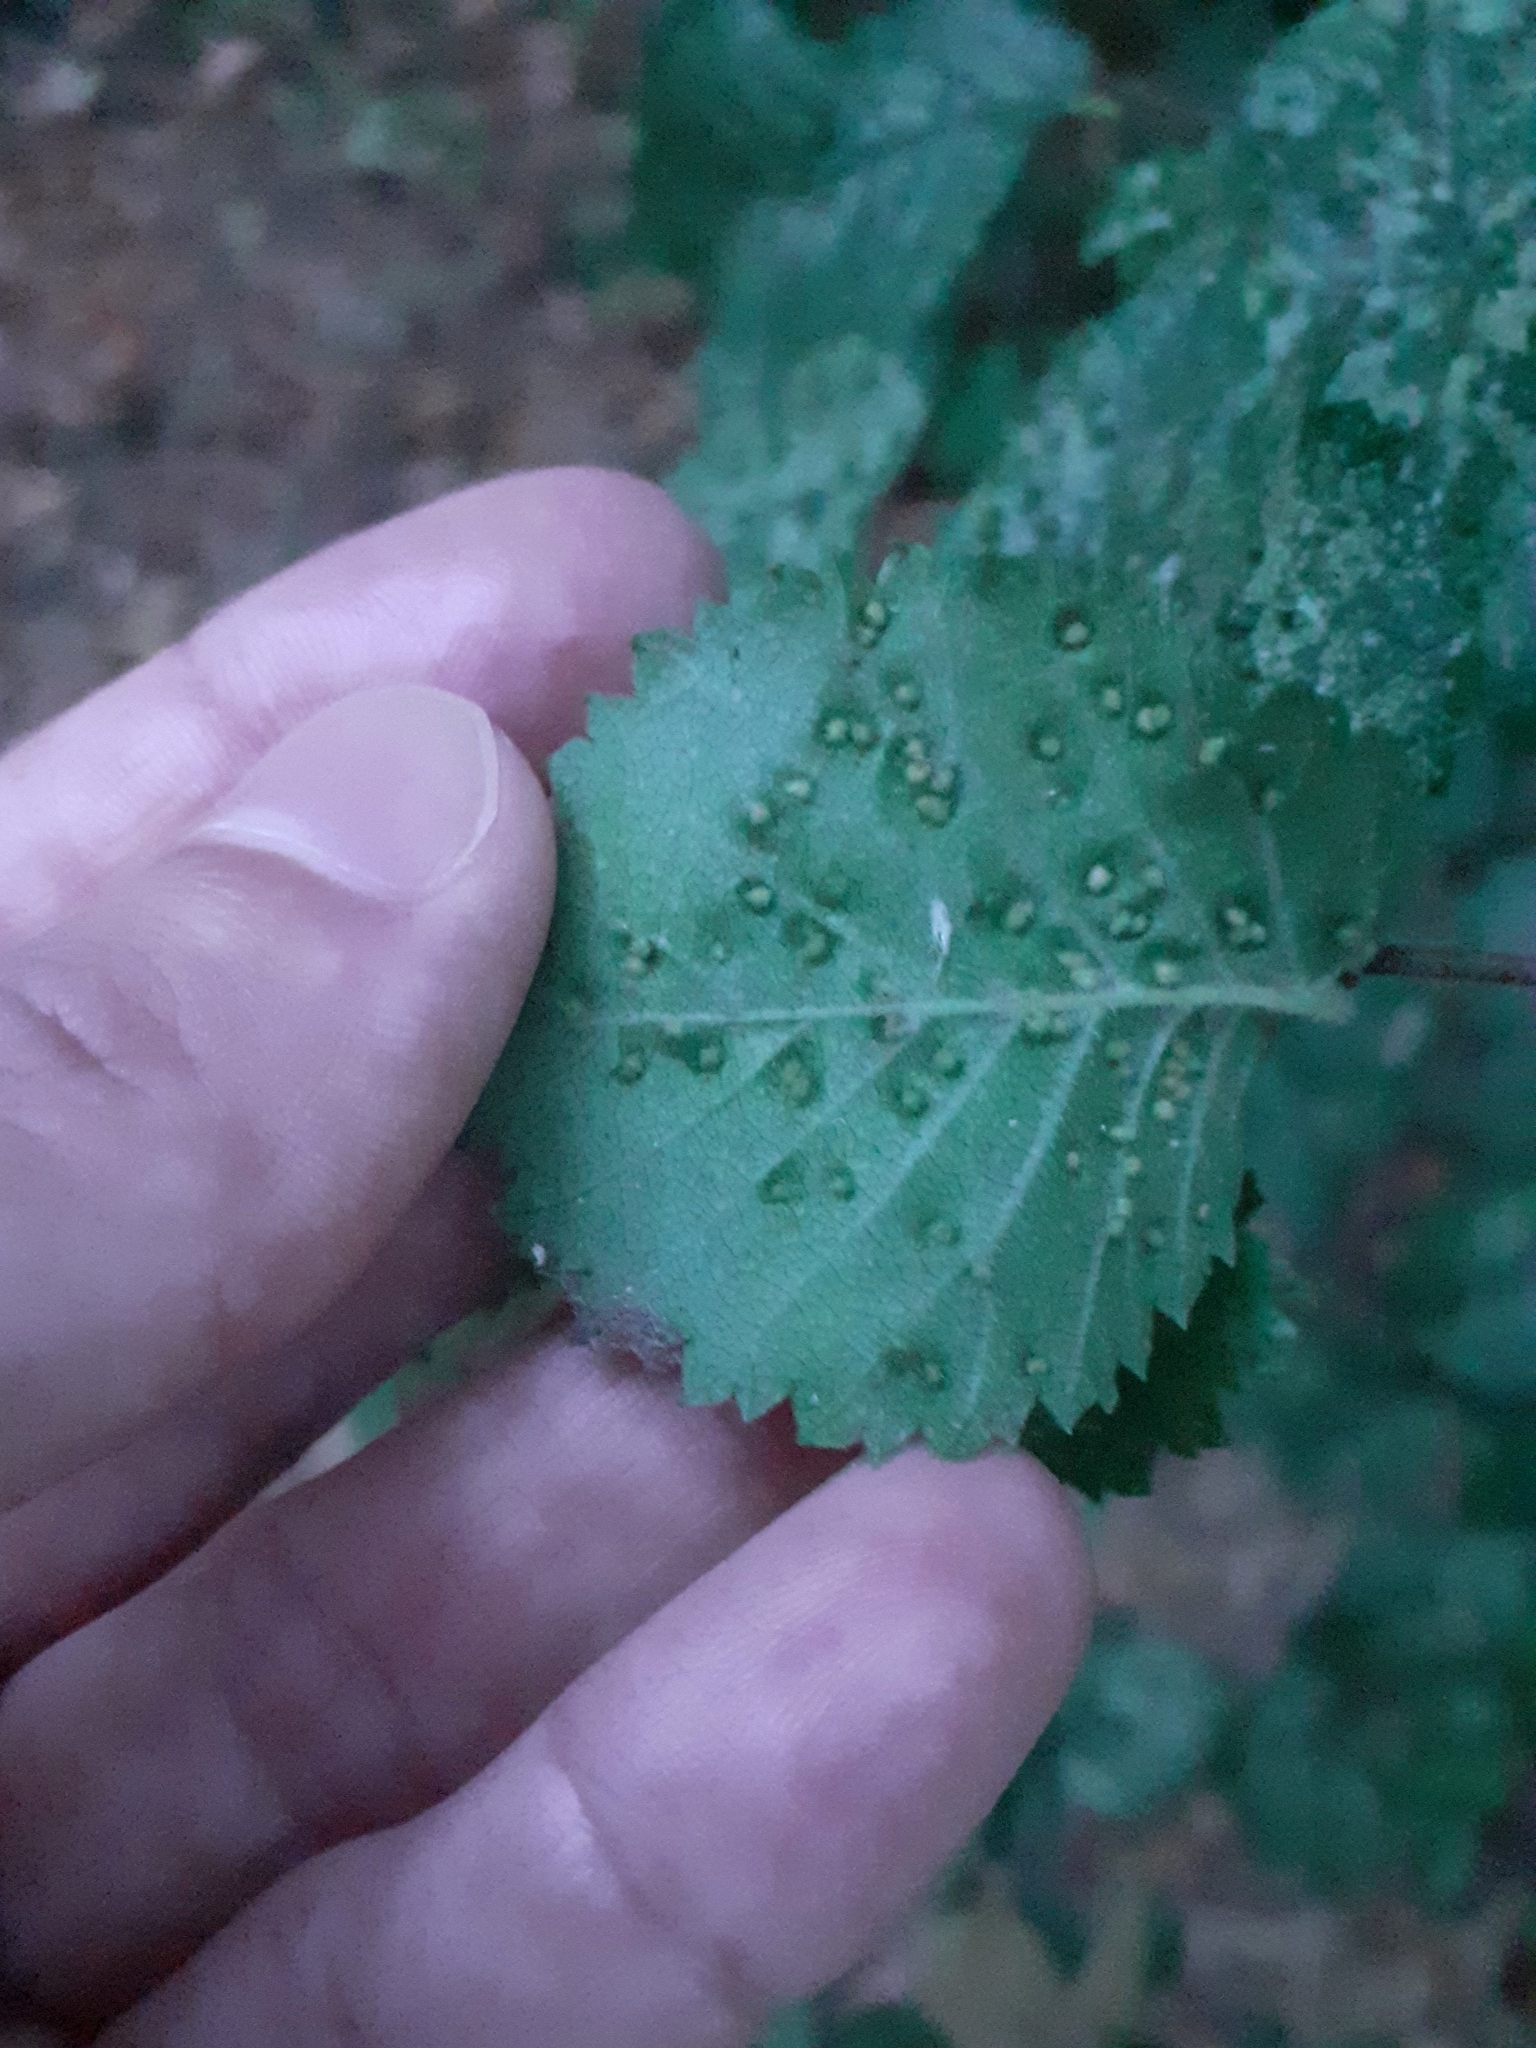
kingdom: Animalia
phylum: Arthropoda
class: Arachnida
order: Trombidiformes
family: Eriophyidae
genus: Aceria
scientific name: Aceria brevipunctata
